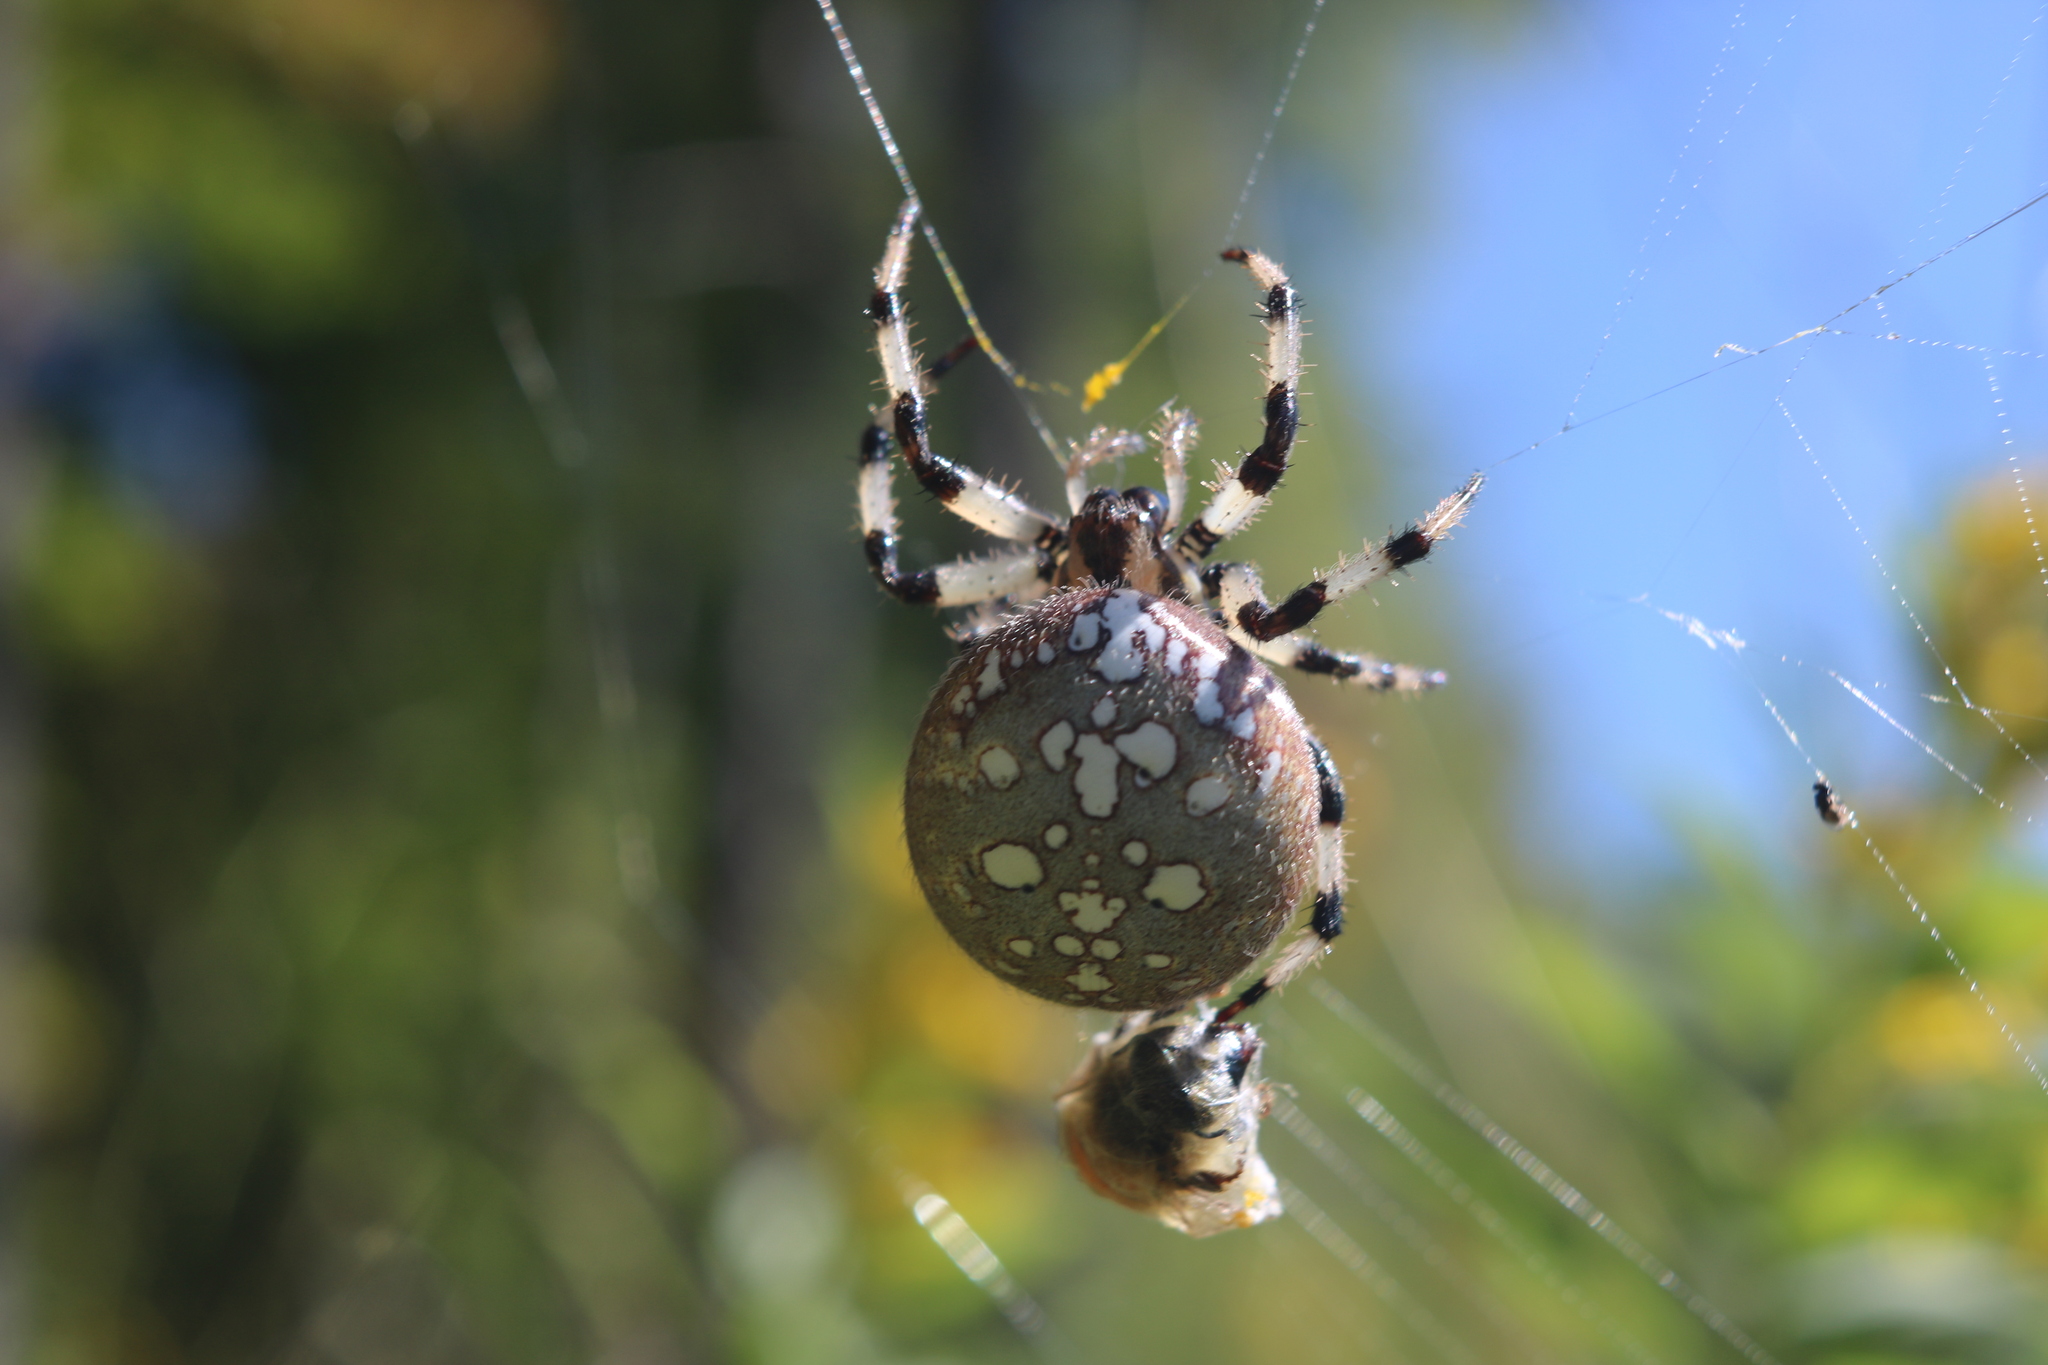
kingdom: Animalia
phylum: Arthropoda
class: Arachnida
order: Araneae
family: Araneidae
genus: Araneus
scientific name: Araneus trifolium
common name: Shamrock orbweaver
